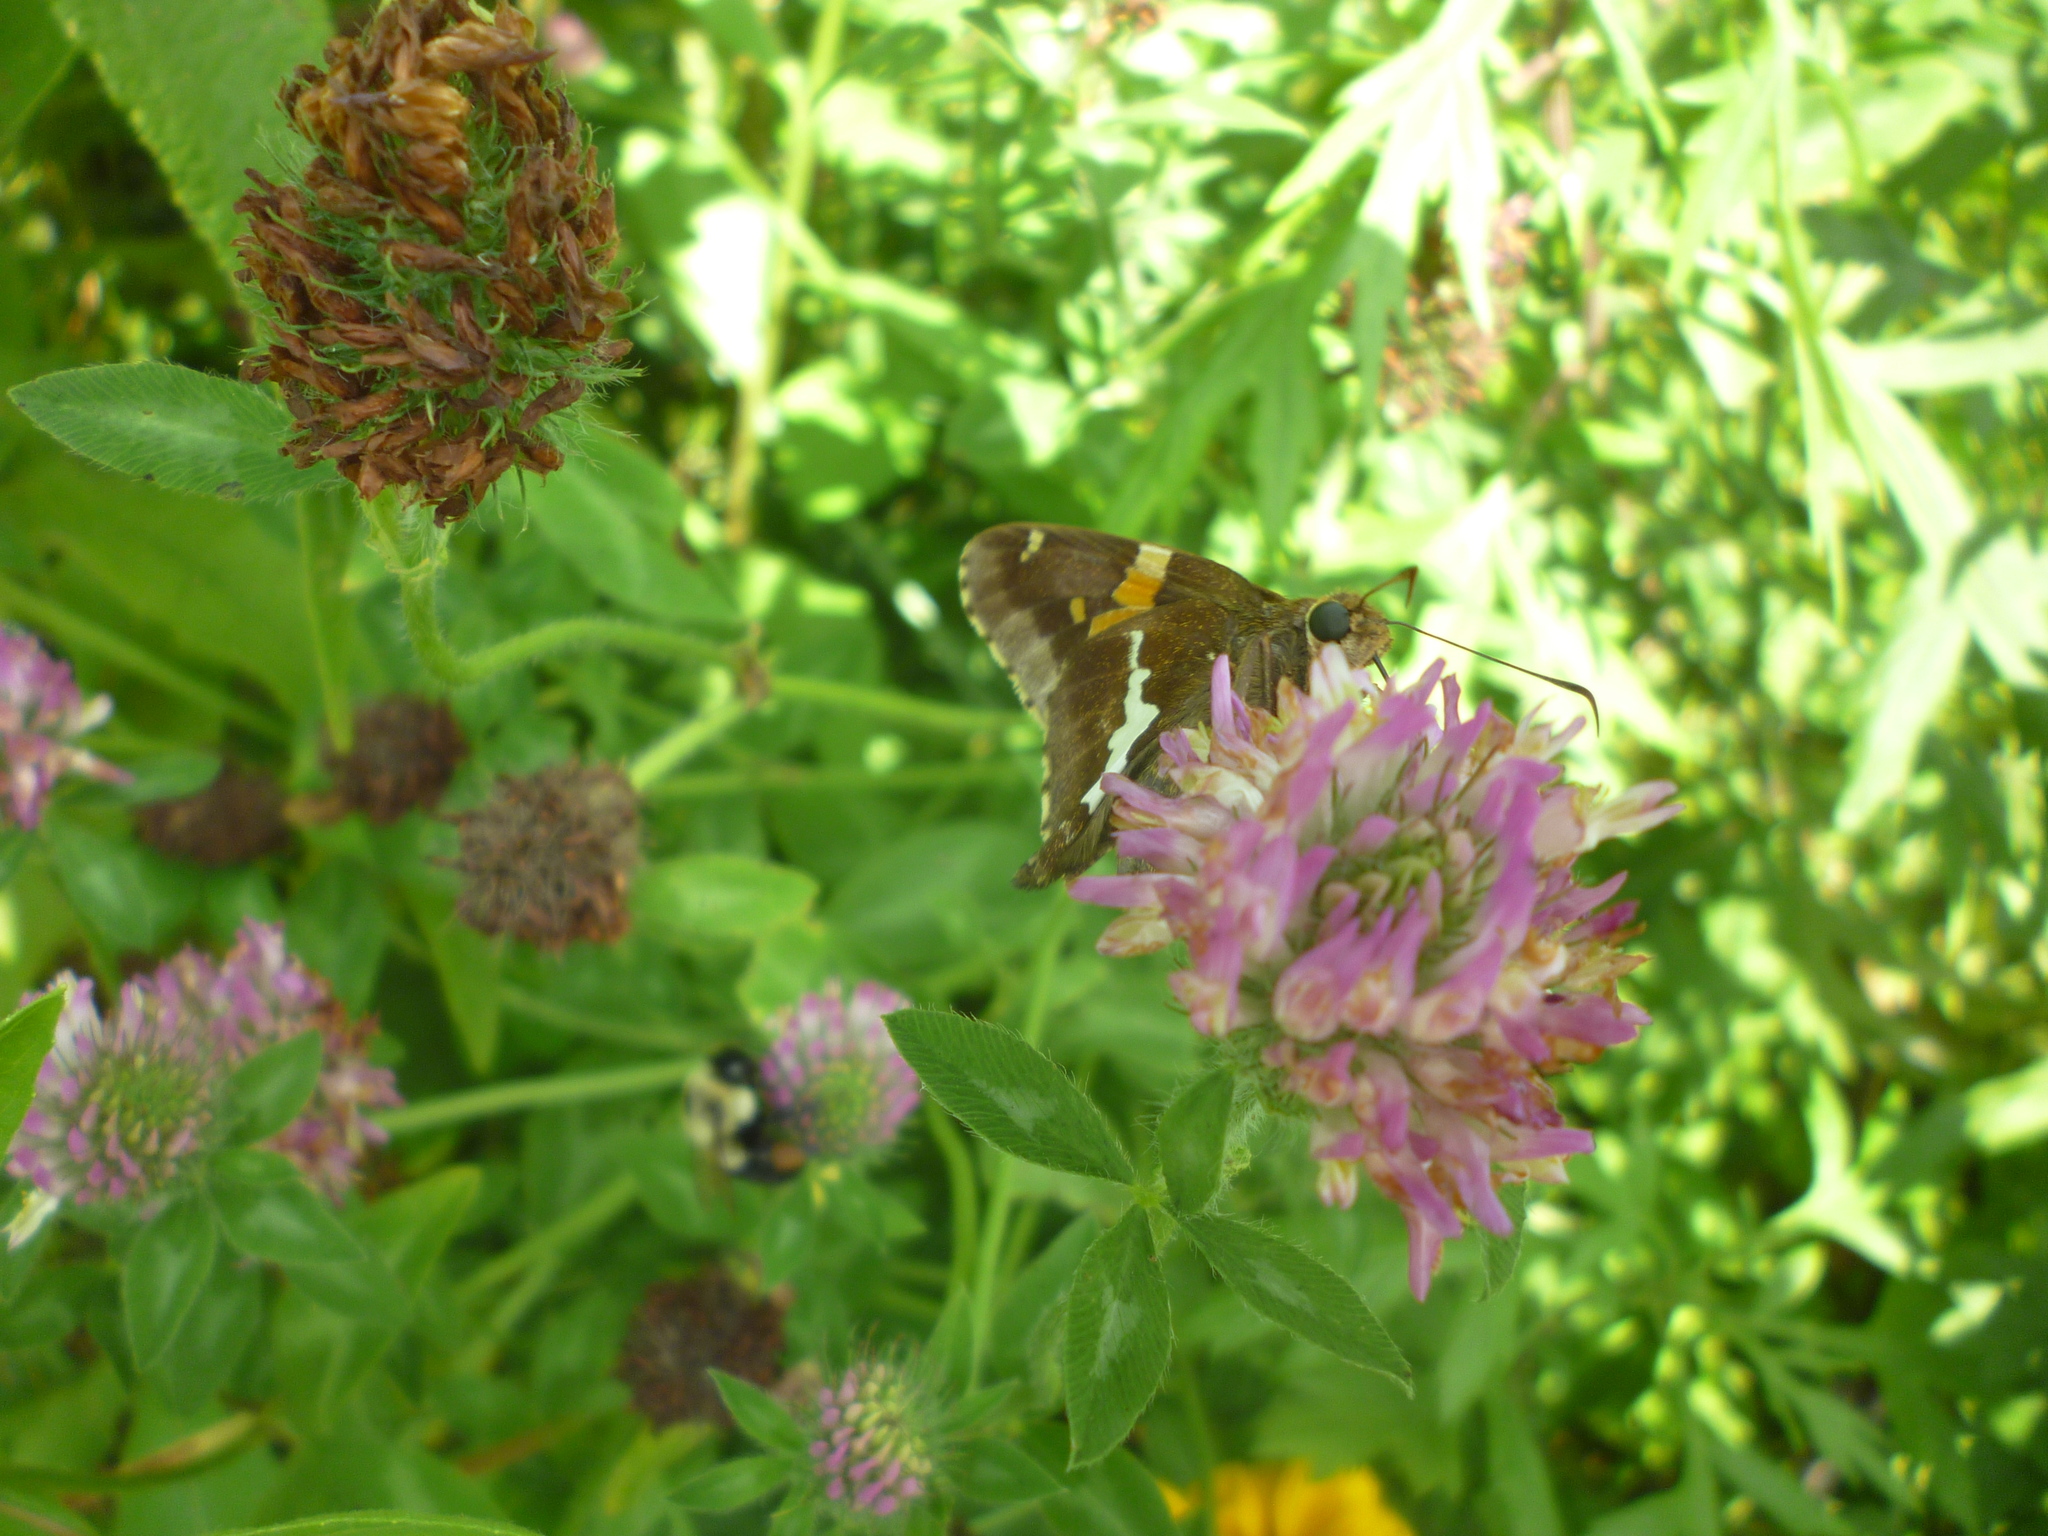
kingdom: Plantae
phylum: Tracheophyta
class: Magnoliopsida
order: Fabales
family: Fabaceae
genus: Trifolium
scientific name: Trifolium pratense
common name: Red clover
